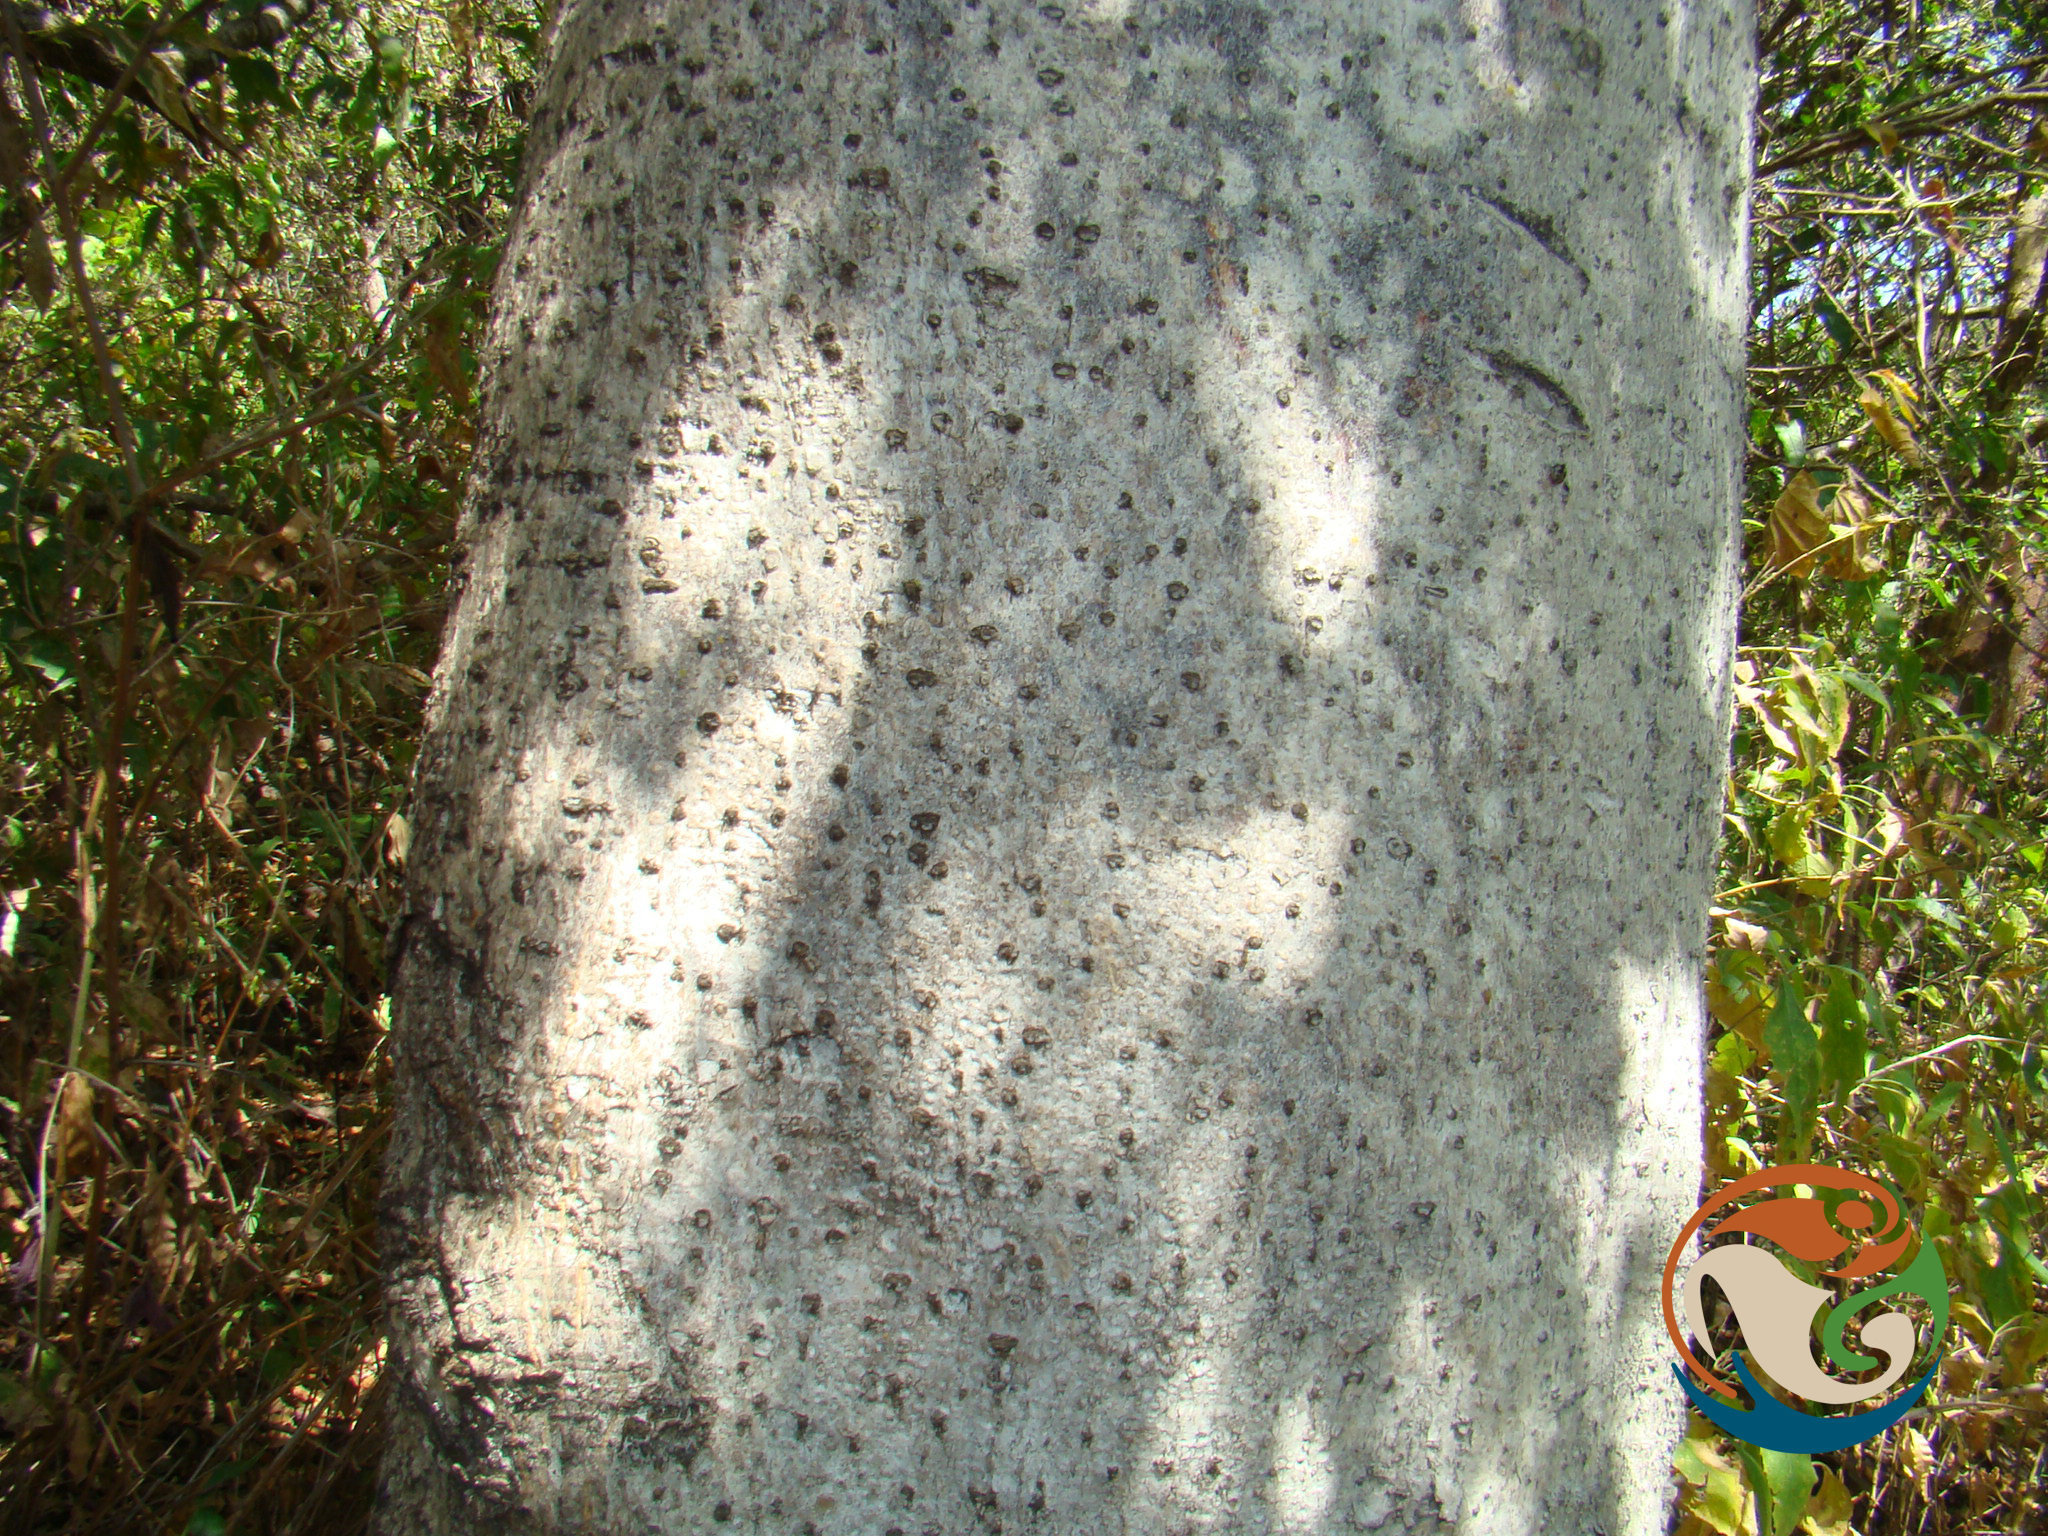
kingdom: Plantae
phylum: Tracheophyta
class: Magnoliopsida
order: Sapindales
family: Burseraceae
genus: Bursera
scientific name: Bursera esparzae
